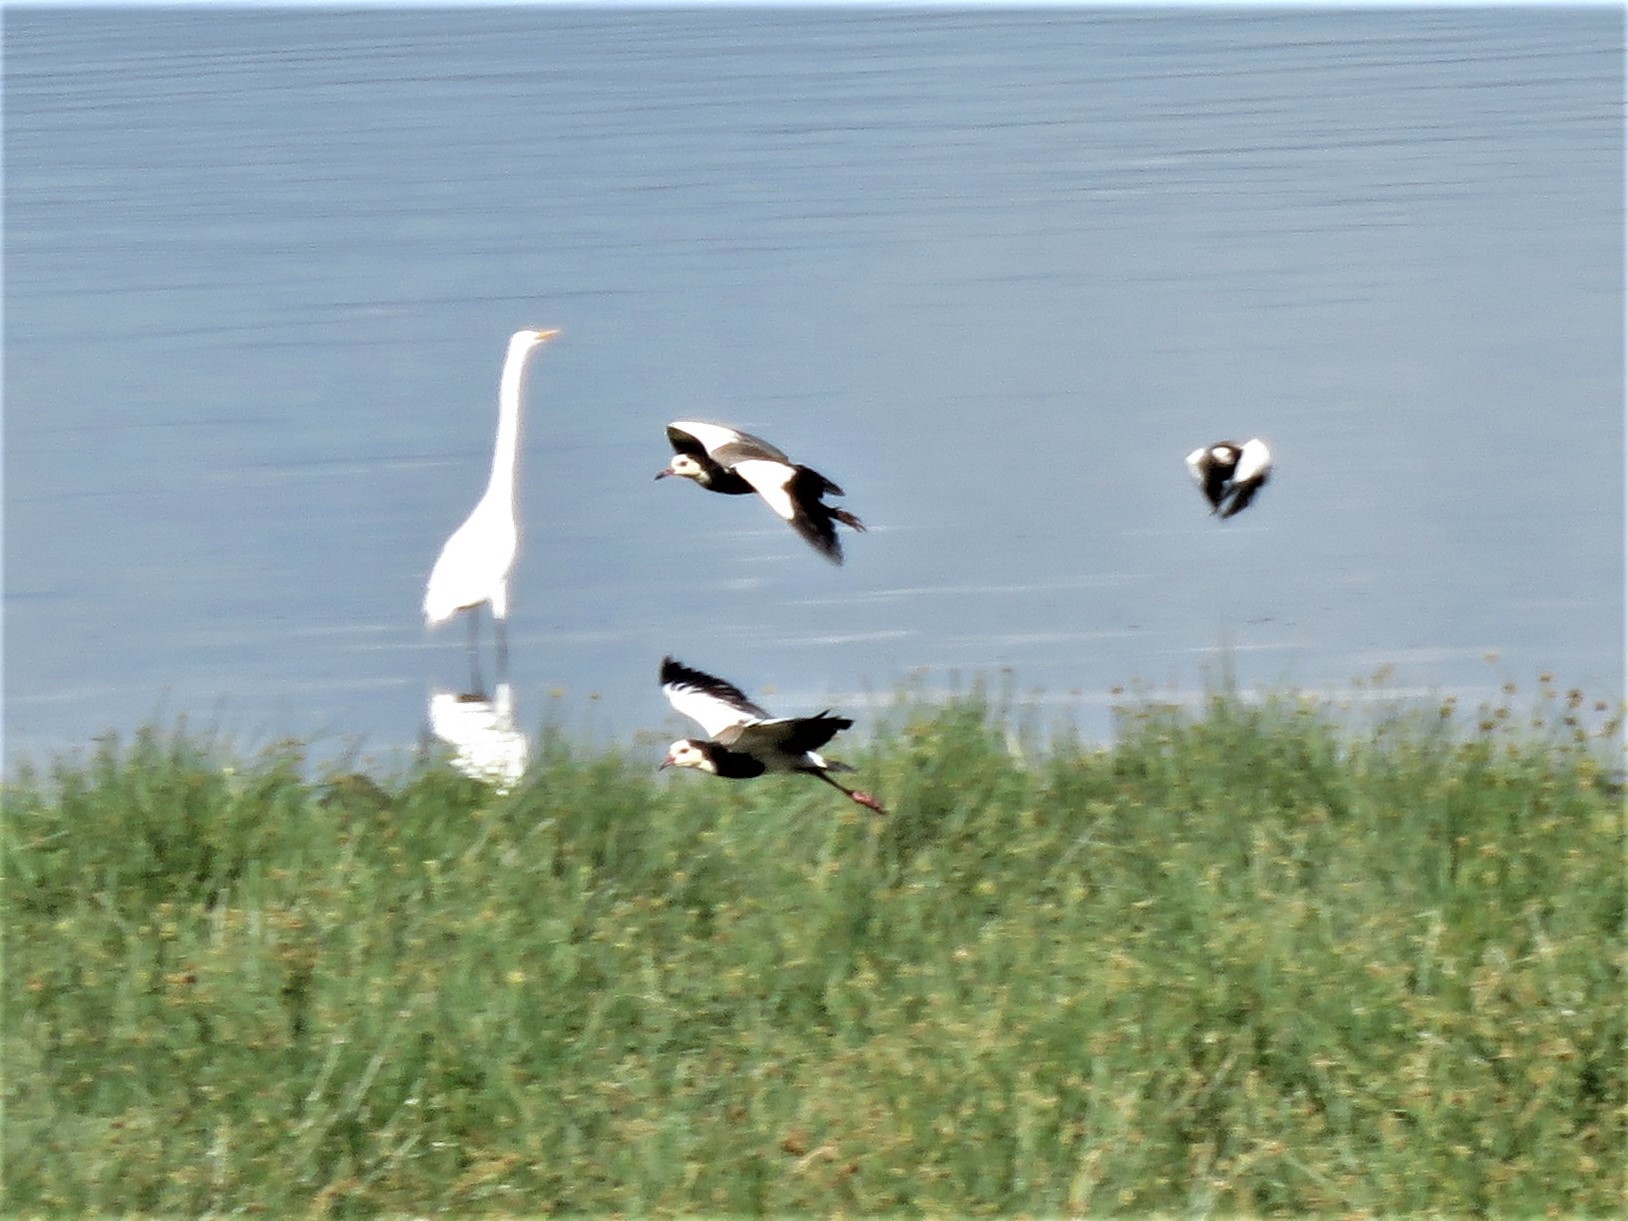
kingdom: Animalia
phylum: Chordata
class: Aves
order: Charadriiformes
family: Charadriidae
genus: Vanellus
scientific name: Vanellus crassirostris
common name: Long-toed lapwing
